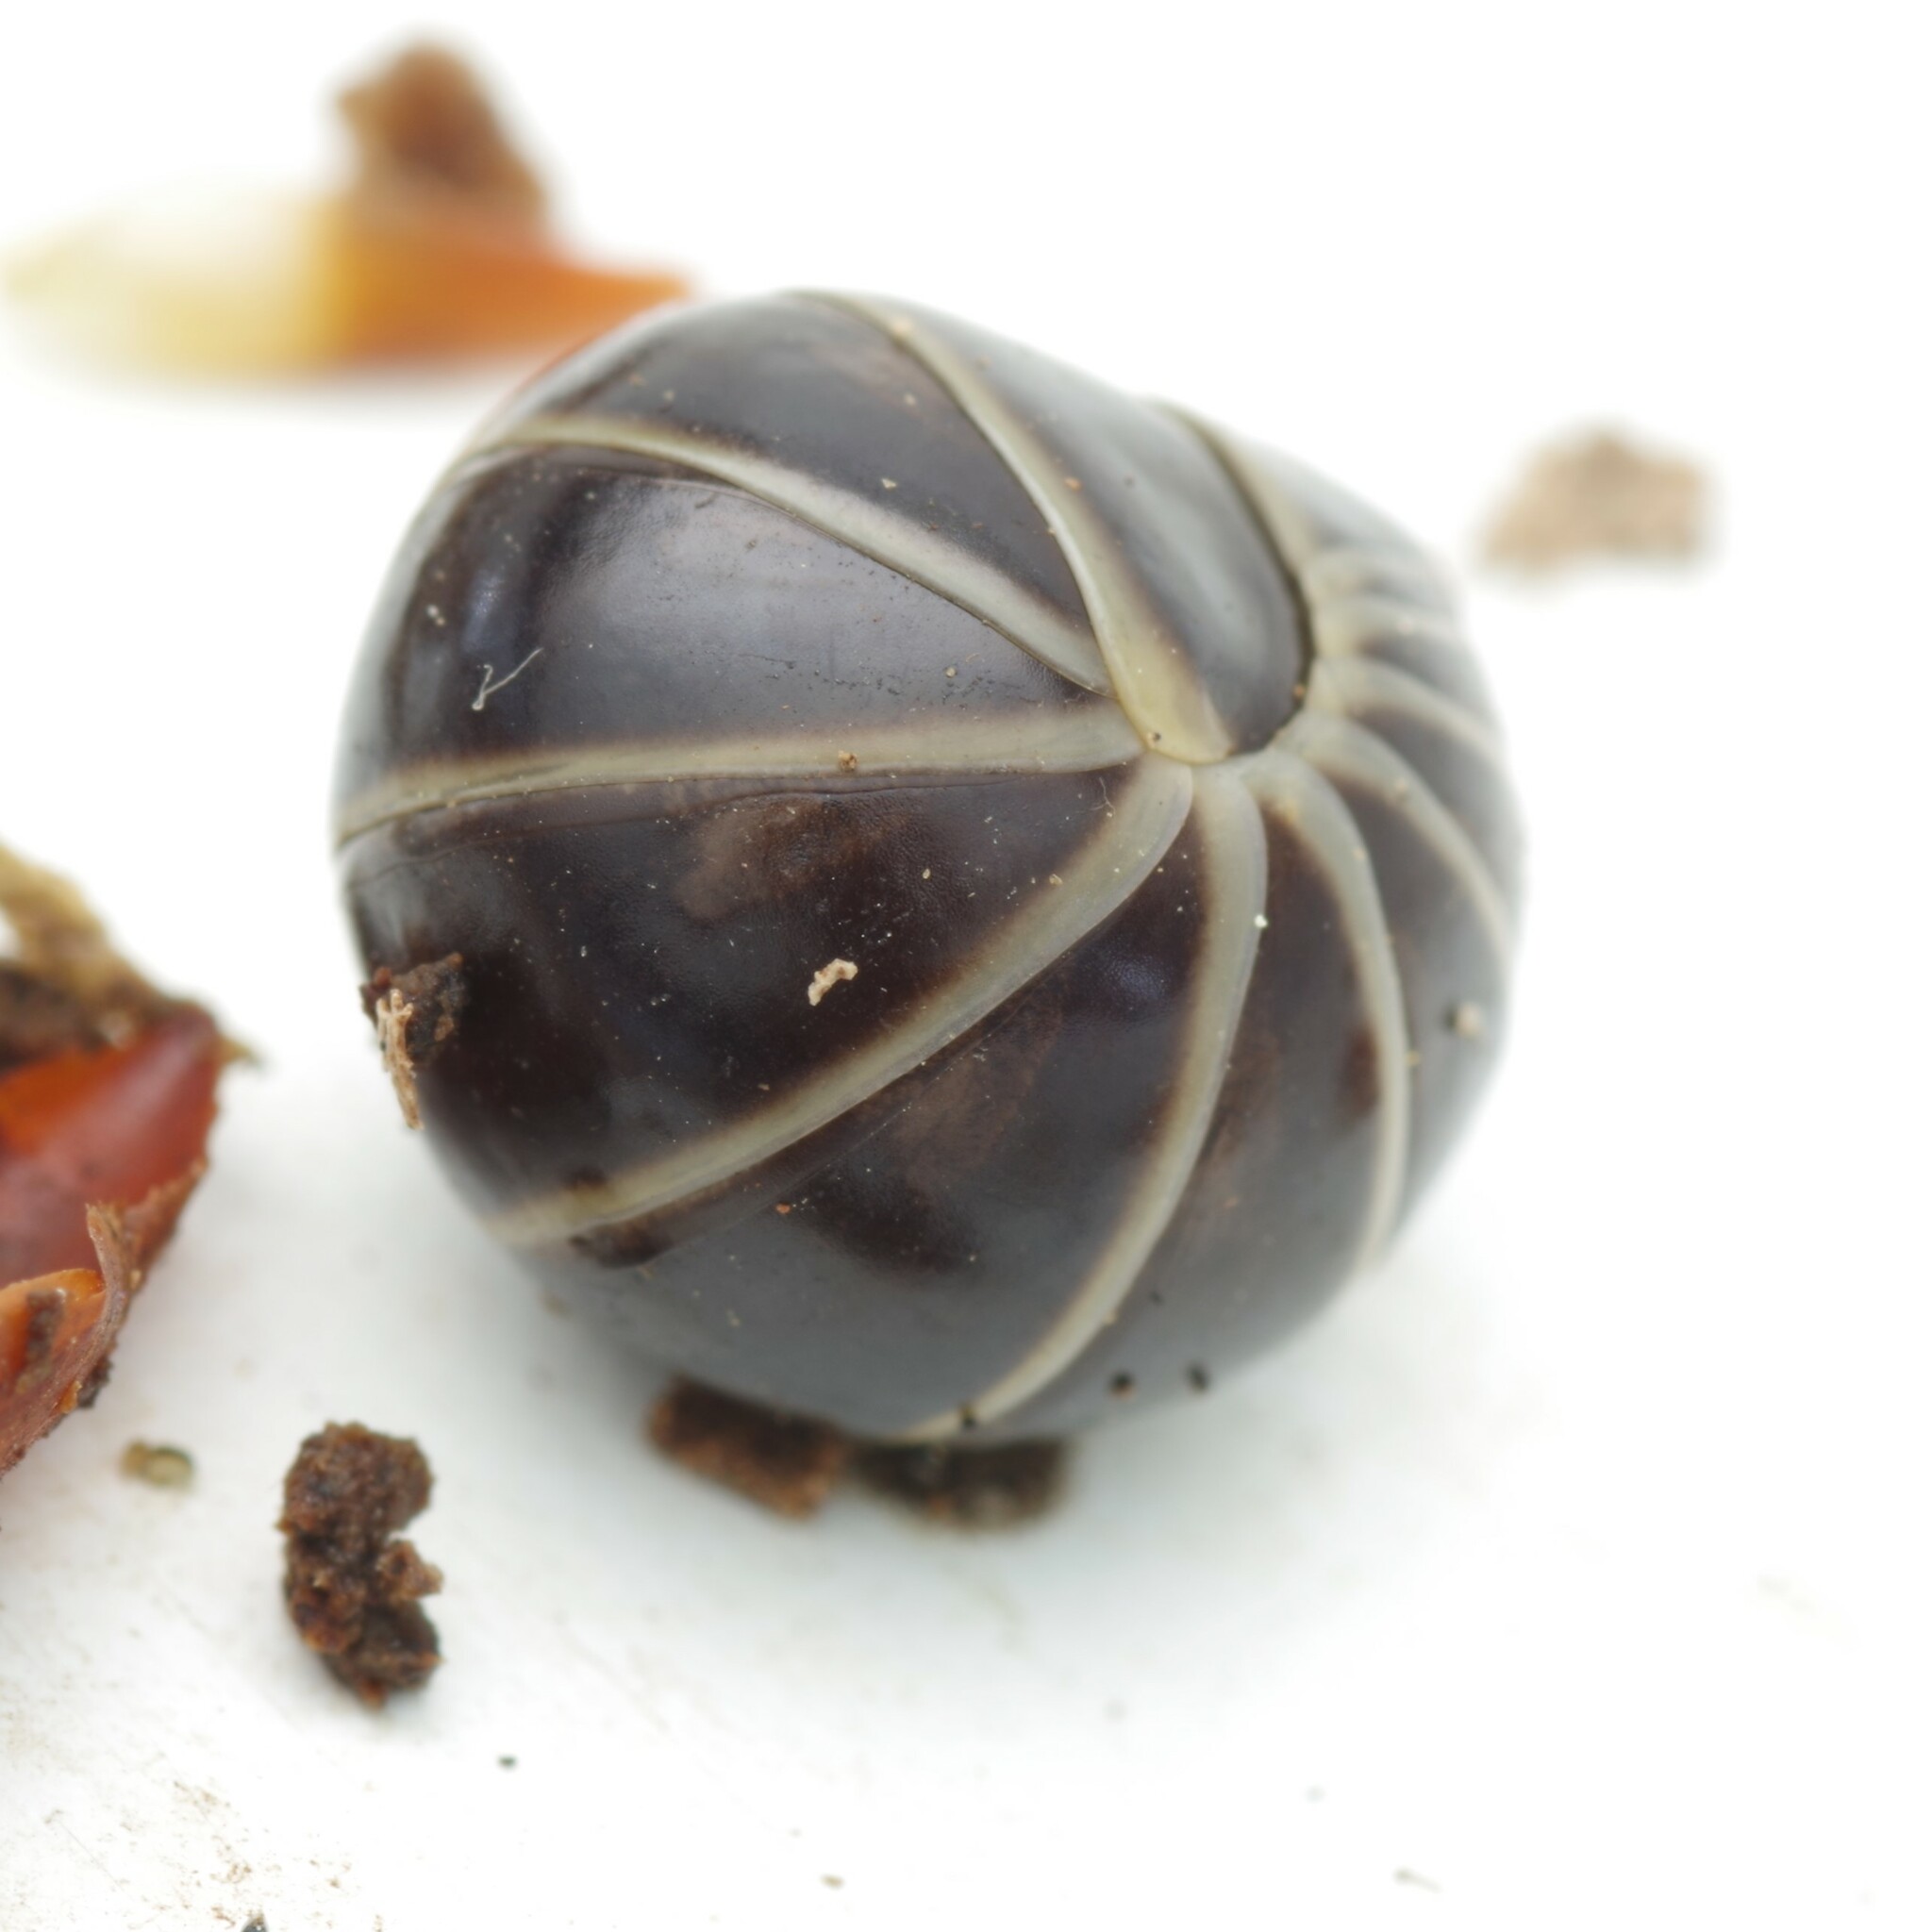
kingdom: Animalia
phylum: Arthropoda
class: Diplopoda
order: Glomerida
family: Glomeridae
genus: Glomeris
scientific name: Glomeris marginata
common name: Bordered pill millipede
